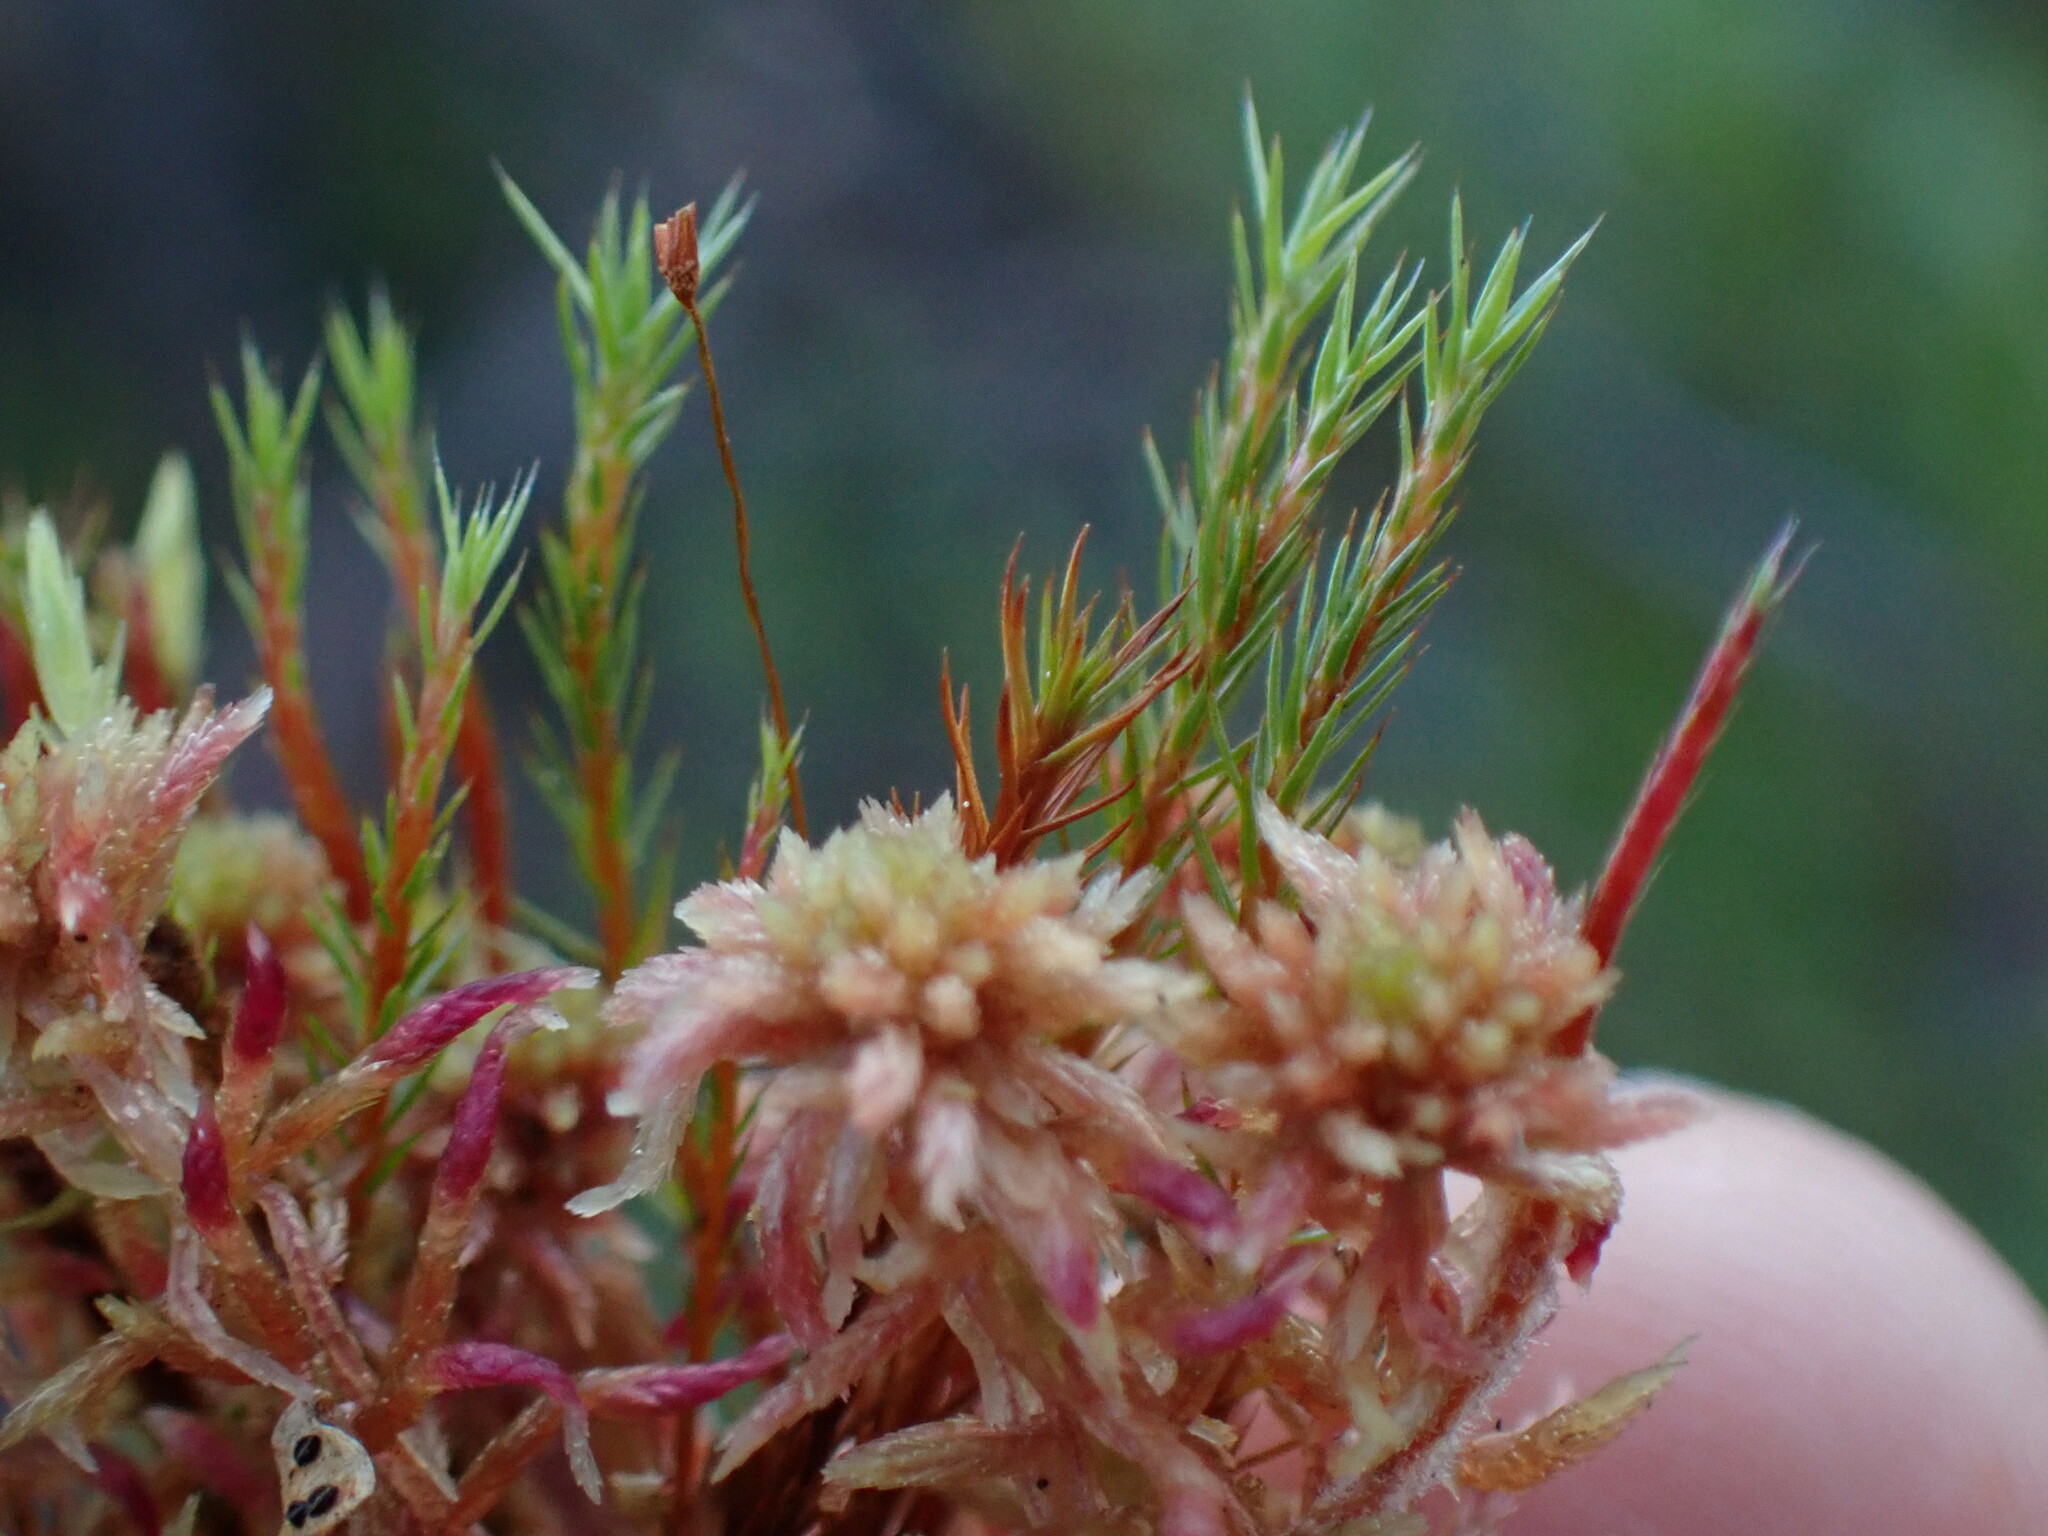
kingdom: Plantae
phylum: Bryophyta
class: Polytrichopsida
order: Polytrichales
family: Polytrichaceae
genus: Polytrichum
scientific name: Polytrichum strictum
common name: Bog haircap moss
